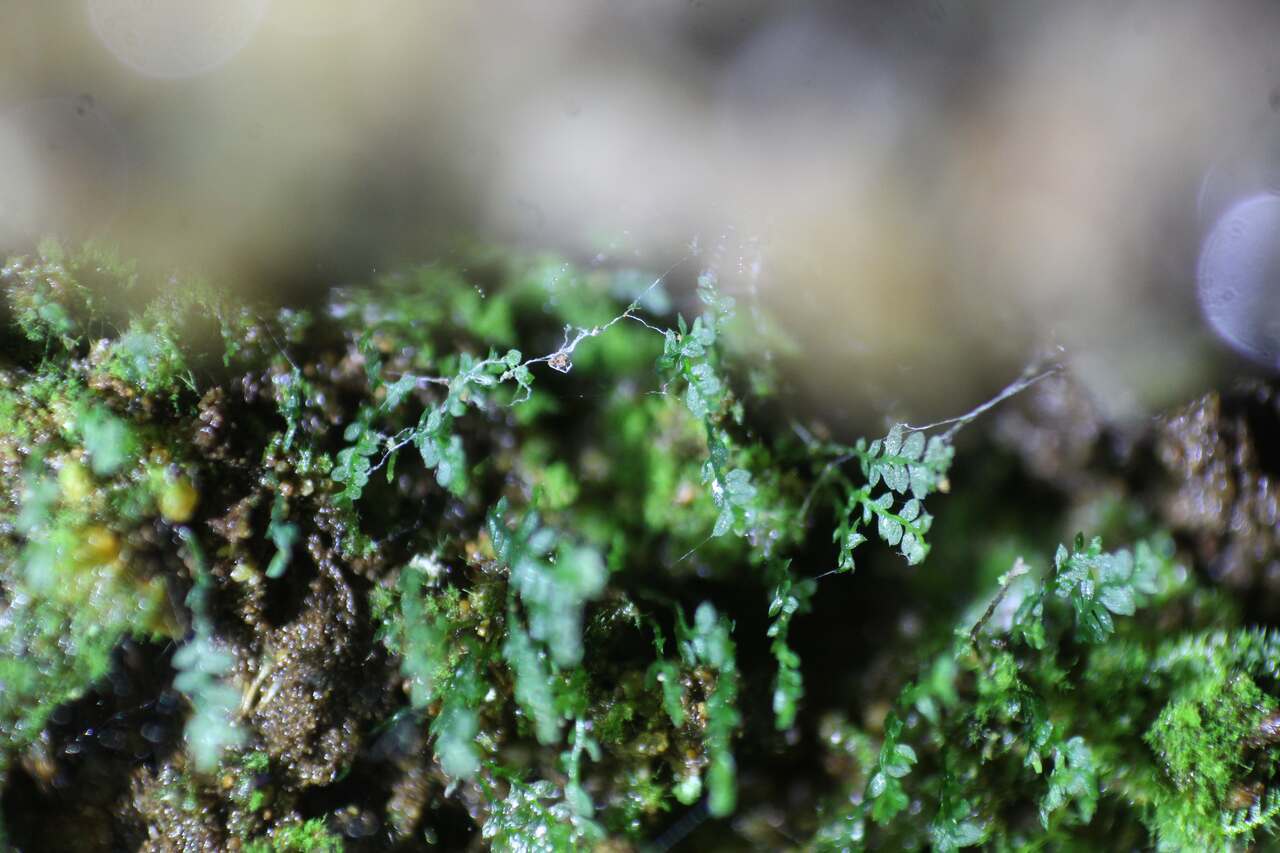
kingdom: Plantae
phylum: Bryophyta
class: Bryopsida
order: Pottiales
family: Mitteniaceae
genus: Mittenia
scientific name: Mittenia plumula
